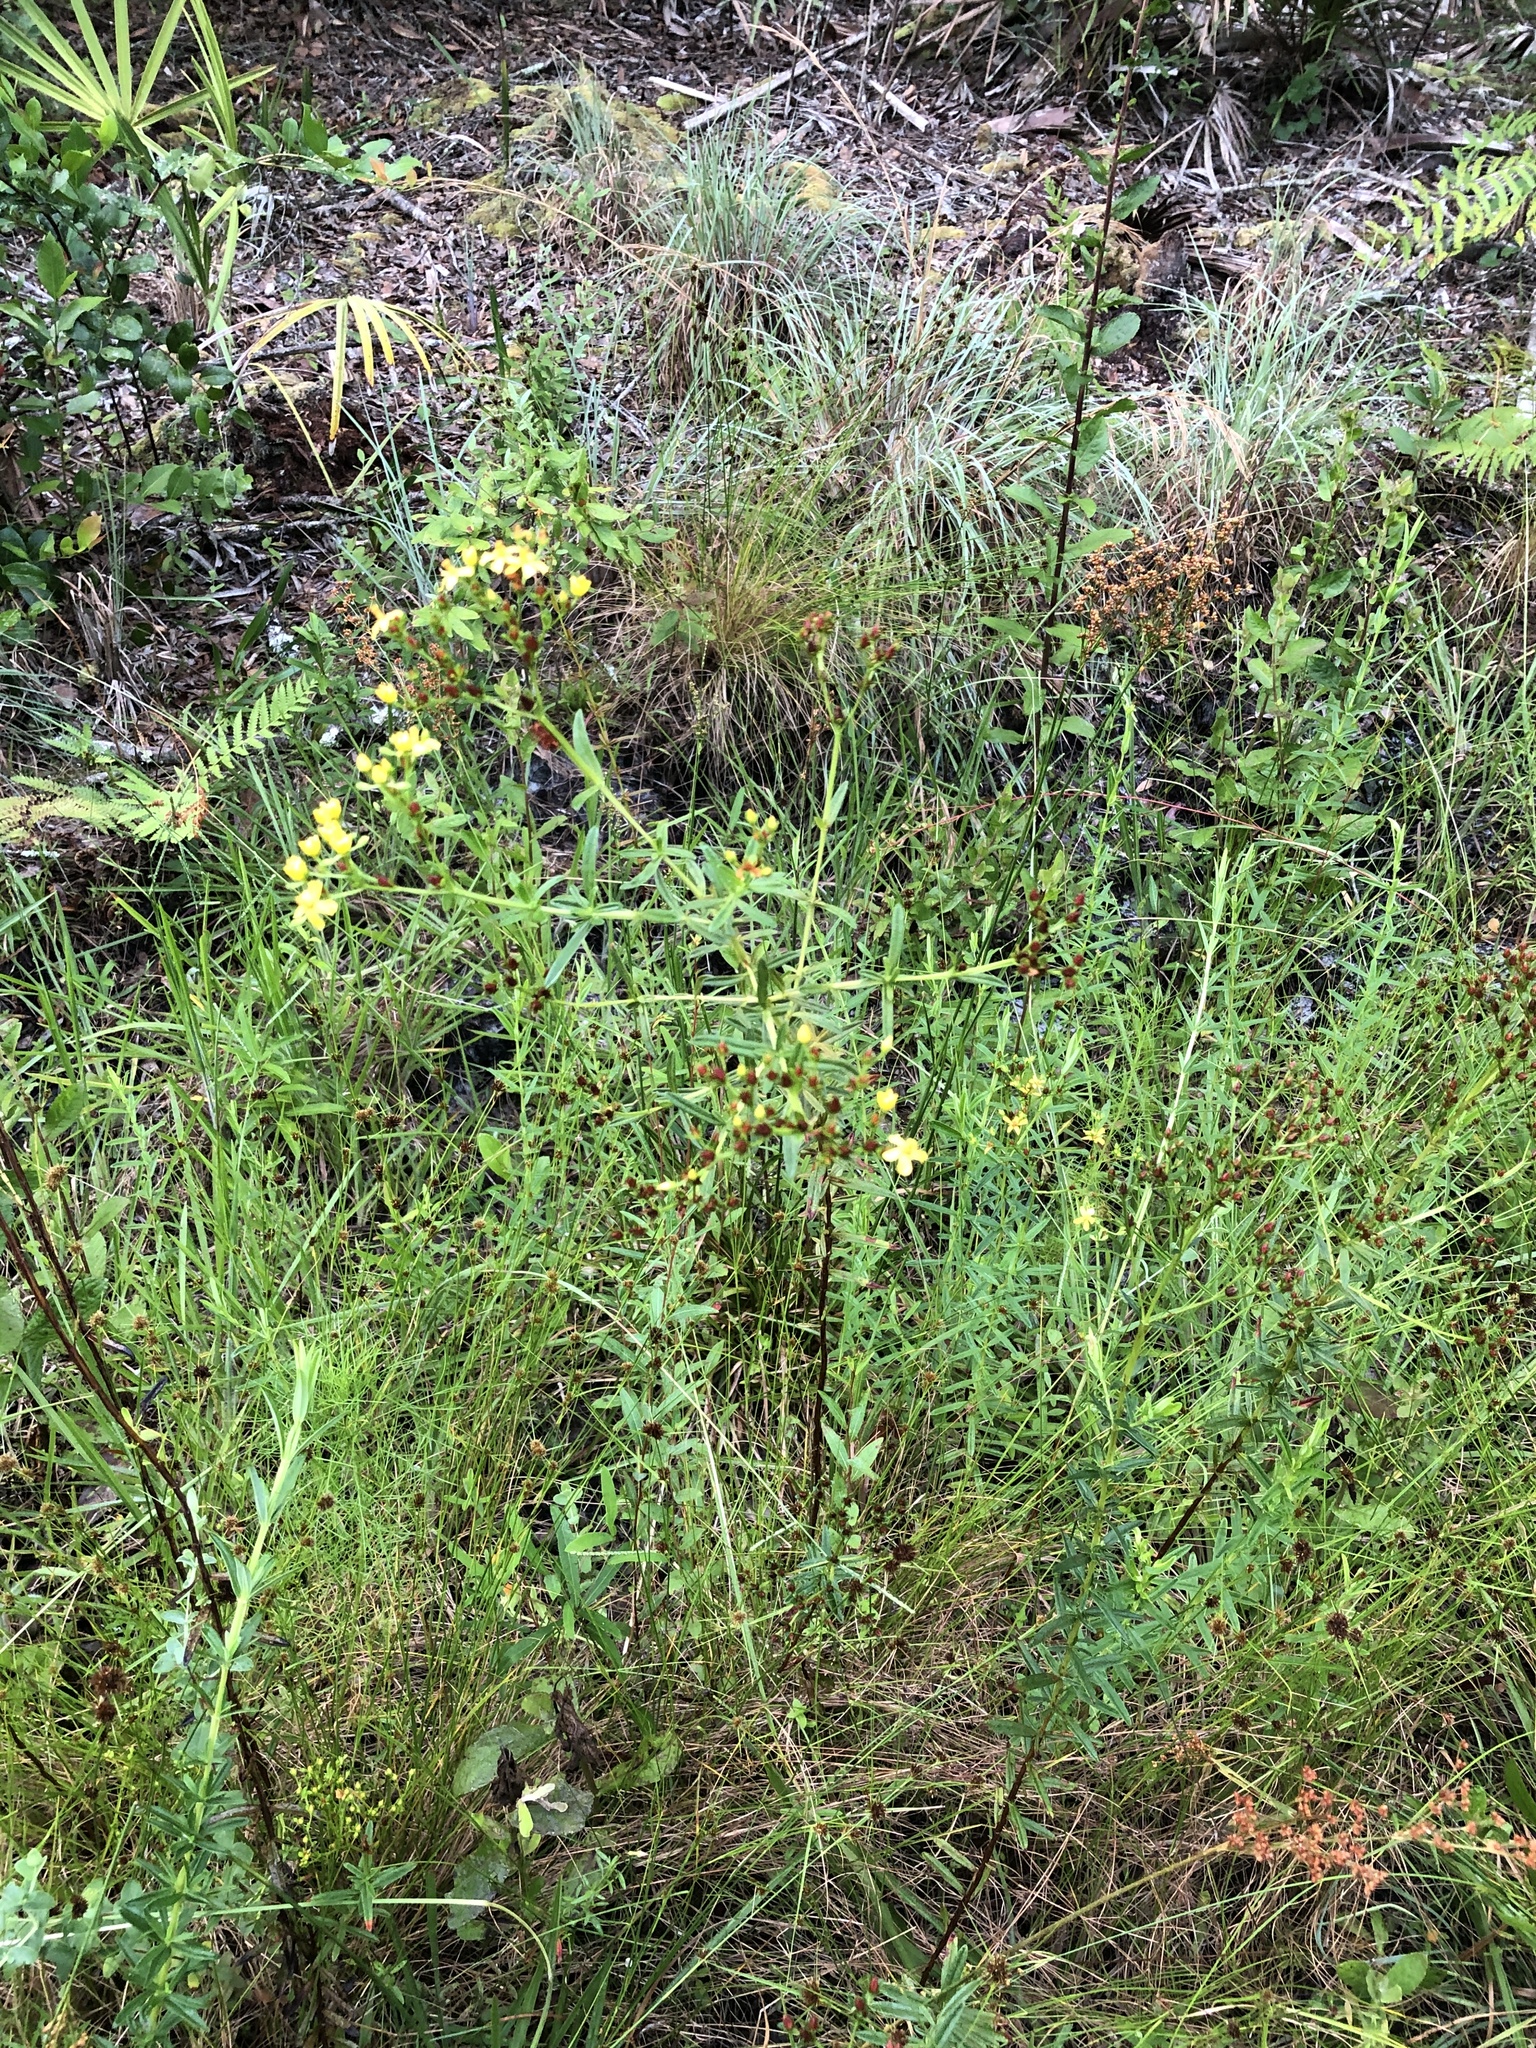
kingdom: Plantae
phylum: Tracheophyta
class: Magnoliopsida
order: Malpighiales
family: Hypericaceae
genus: Hypericum
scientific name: Hypericum cistifolium
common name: Round-pod st. john's-wort
